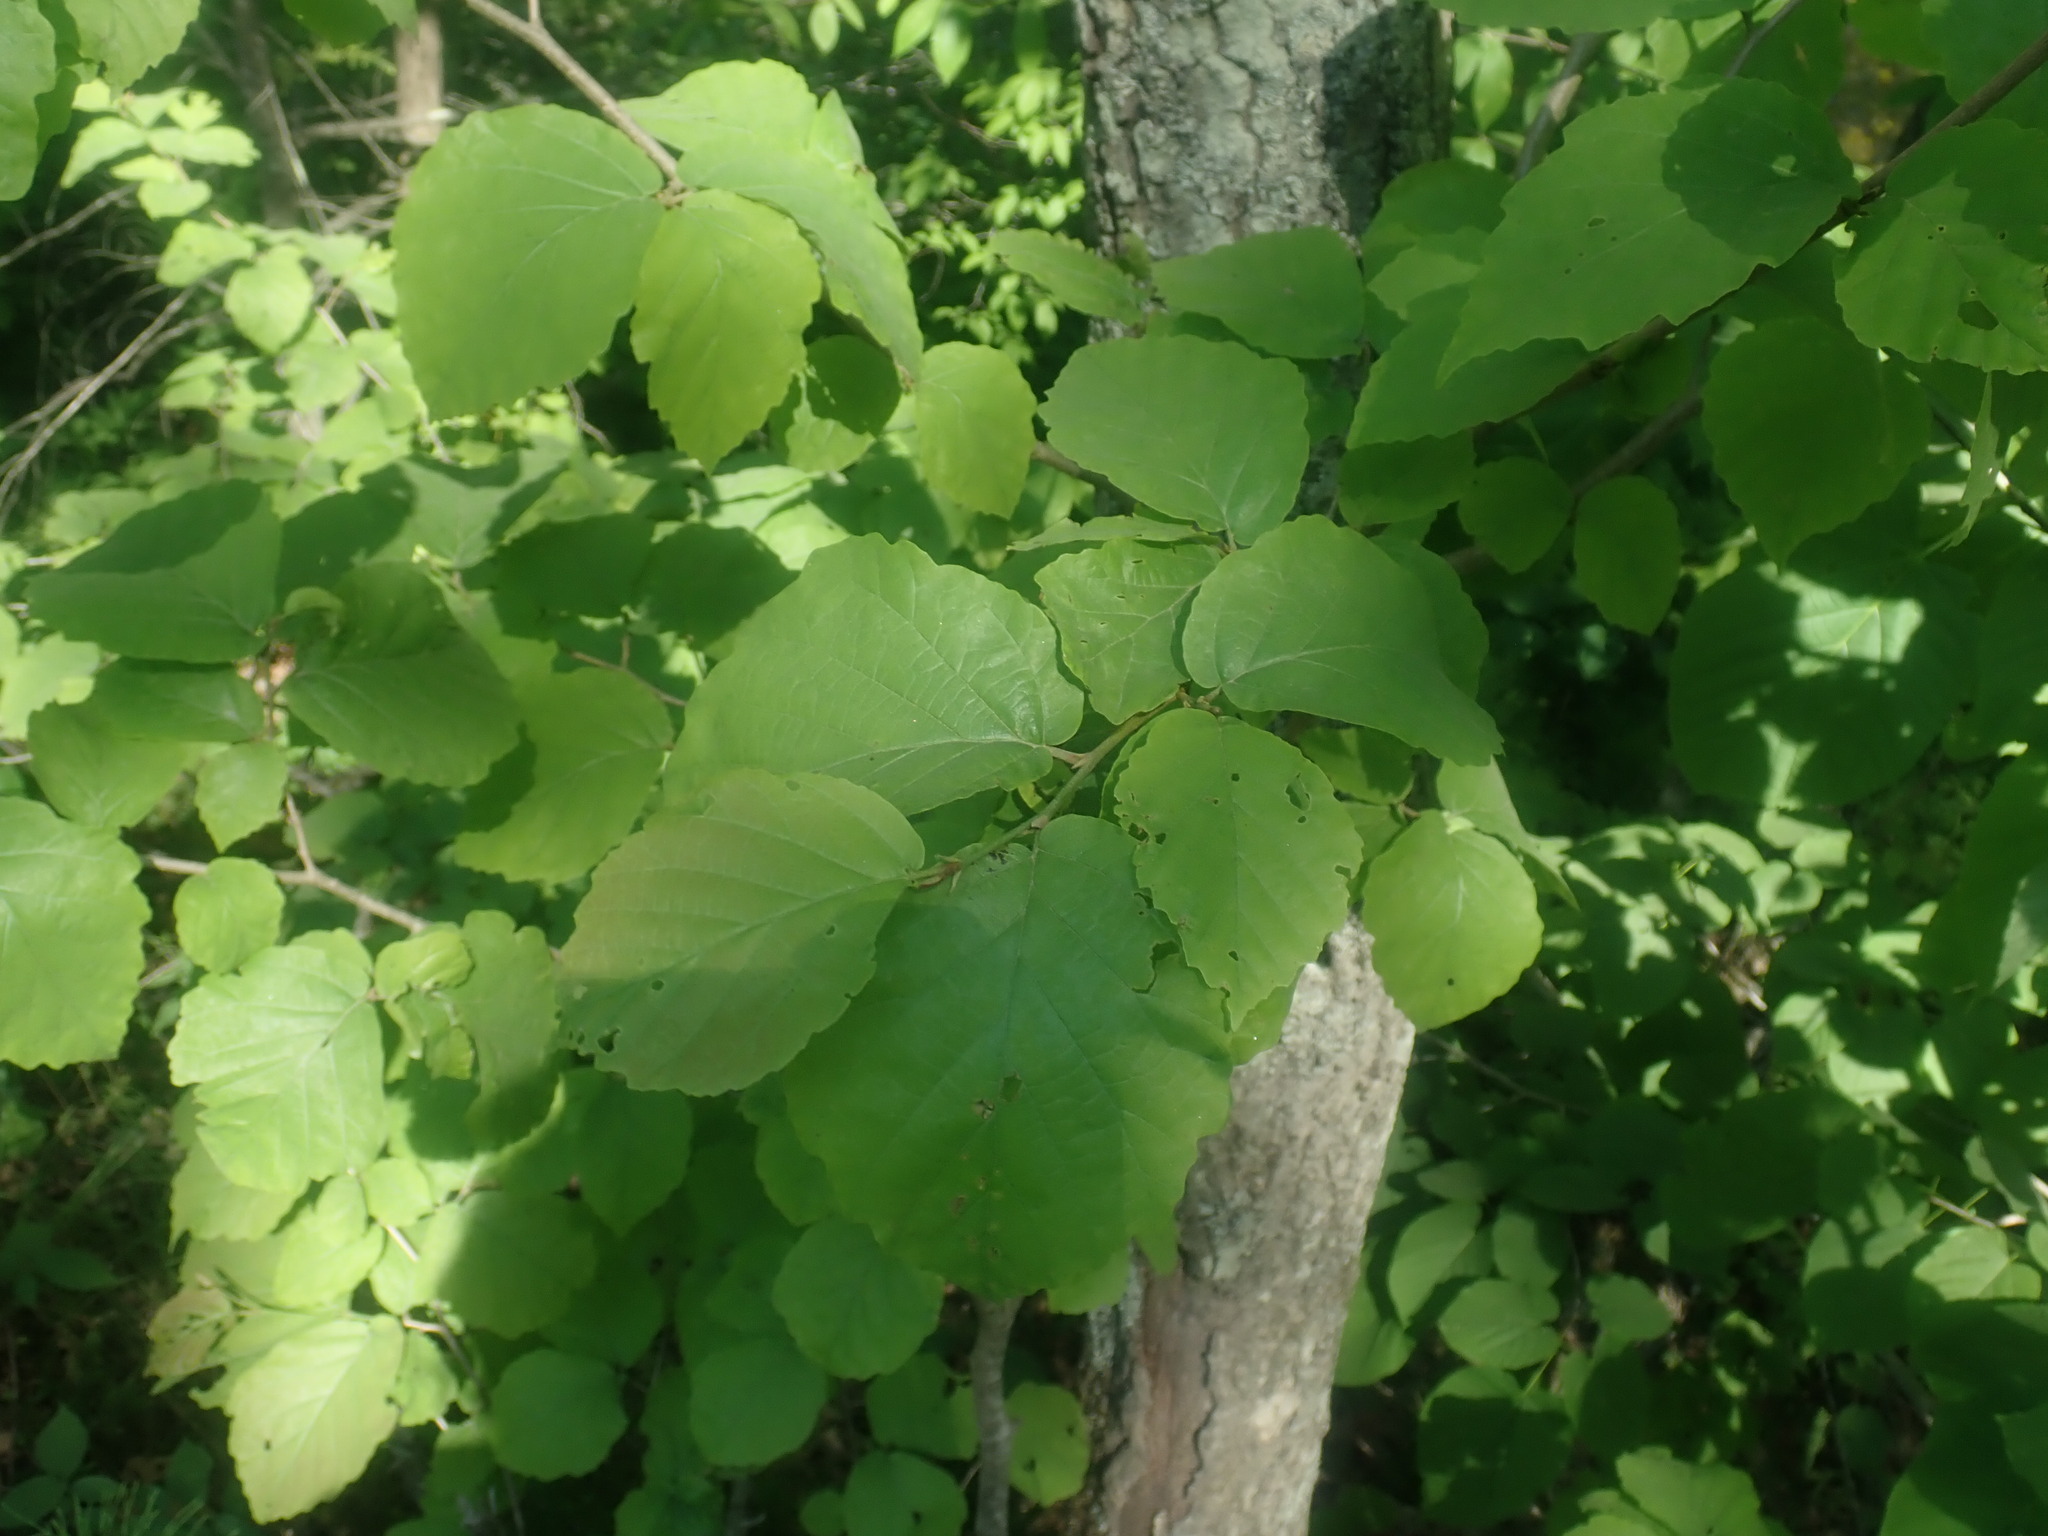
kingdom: Plantae
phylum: Tracheophyta
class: Magnoliopsida
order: Saxifragales
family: Hamamelidaceae
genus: Hamamelis
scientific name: Hamamelis virginiana
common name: Witch-hazel
